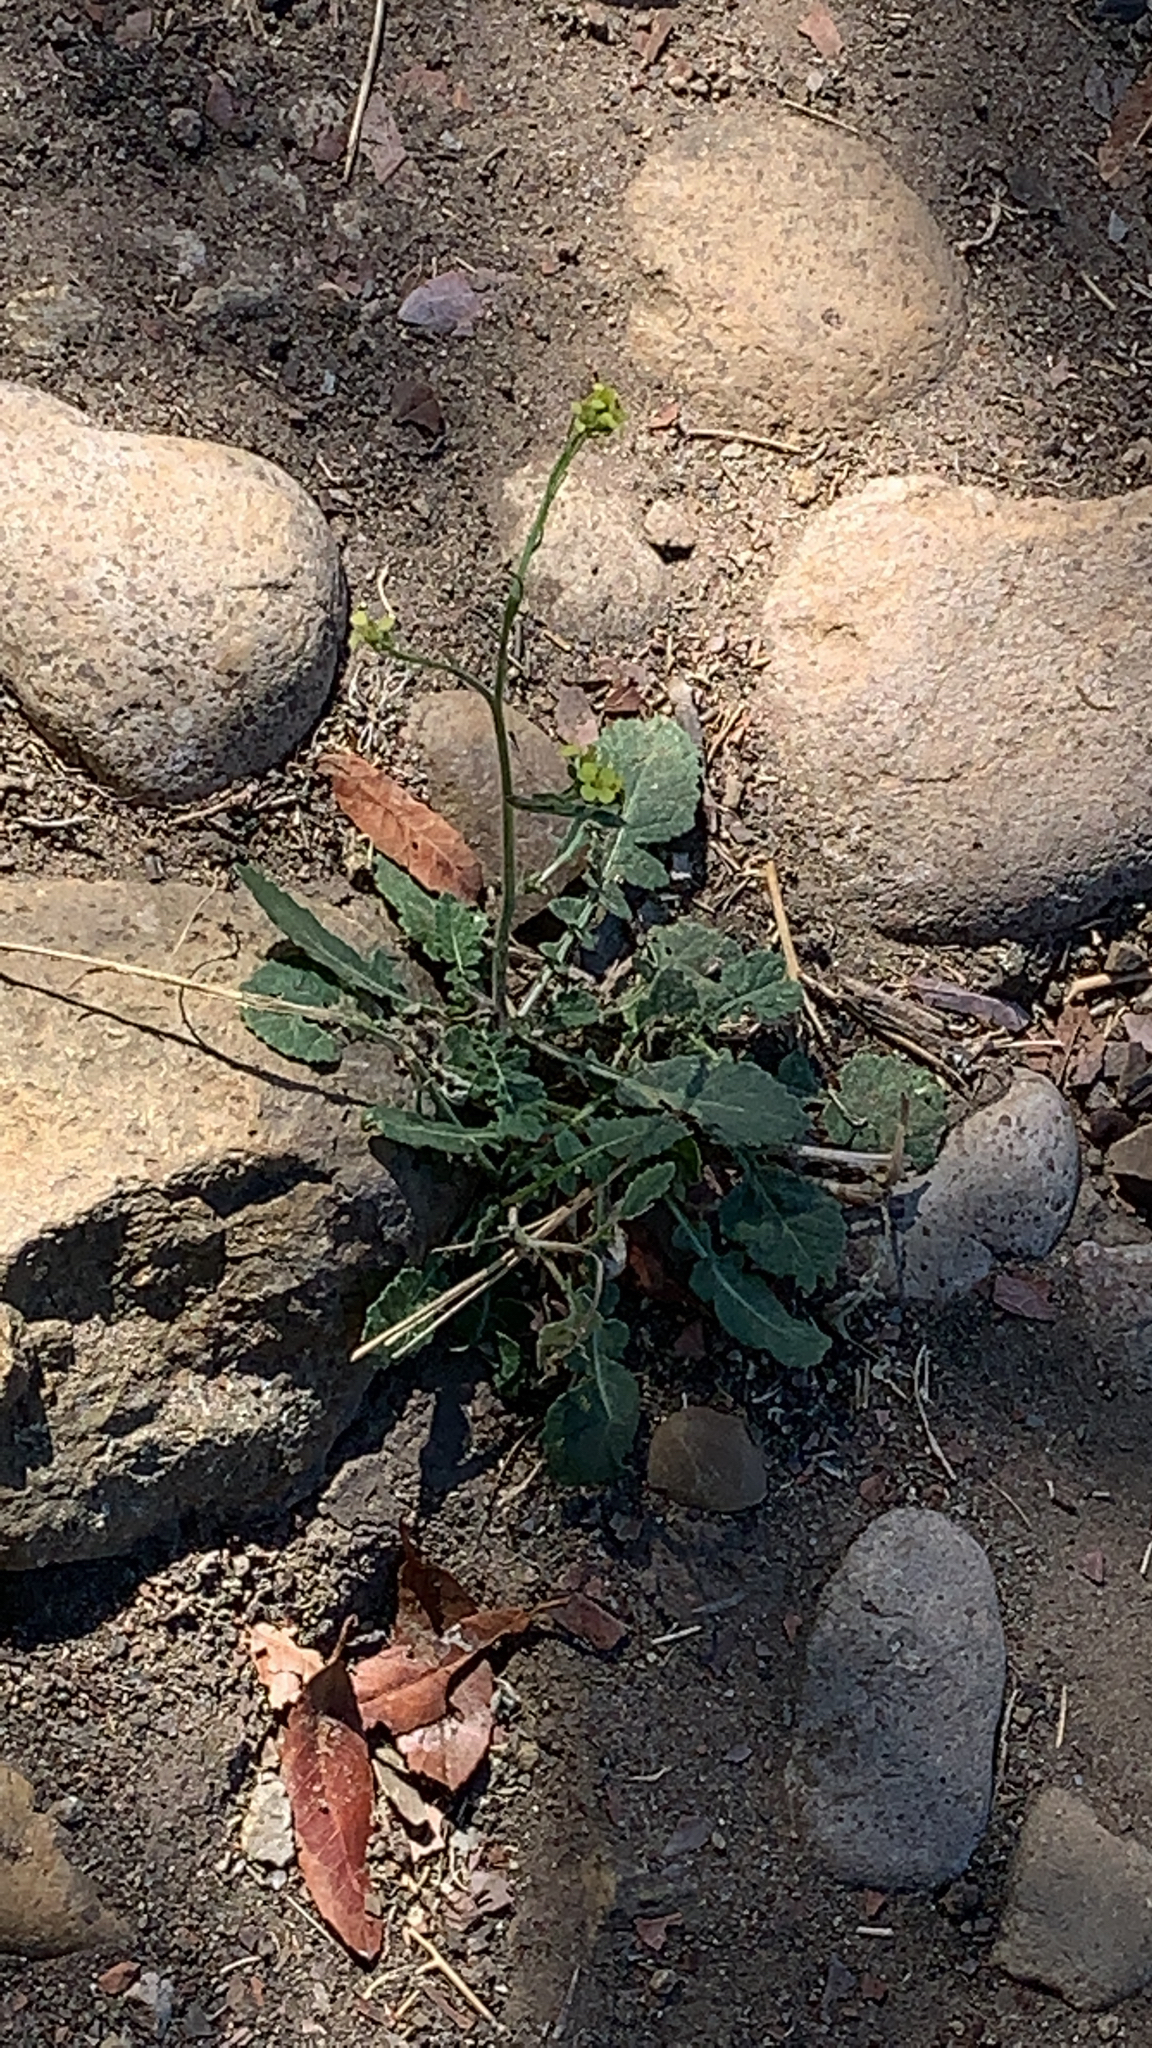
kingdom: Plantae
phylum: Tracheophyta
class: Magnoliopsida
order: Brassicales
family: Brassicaceae
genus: Hirschfeldia
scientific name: Hirschfeldia incana
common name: Hoary mustard
